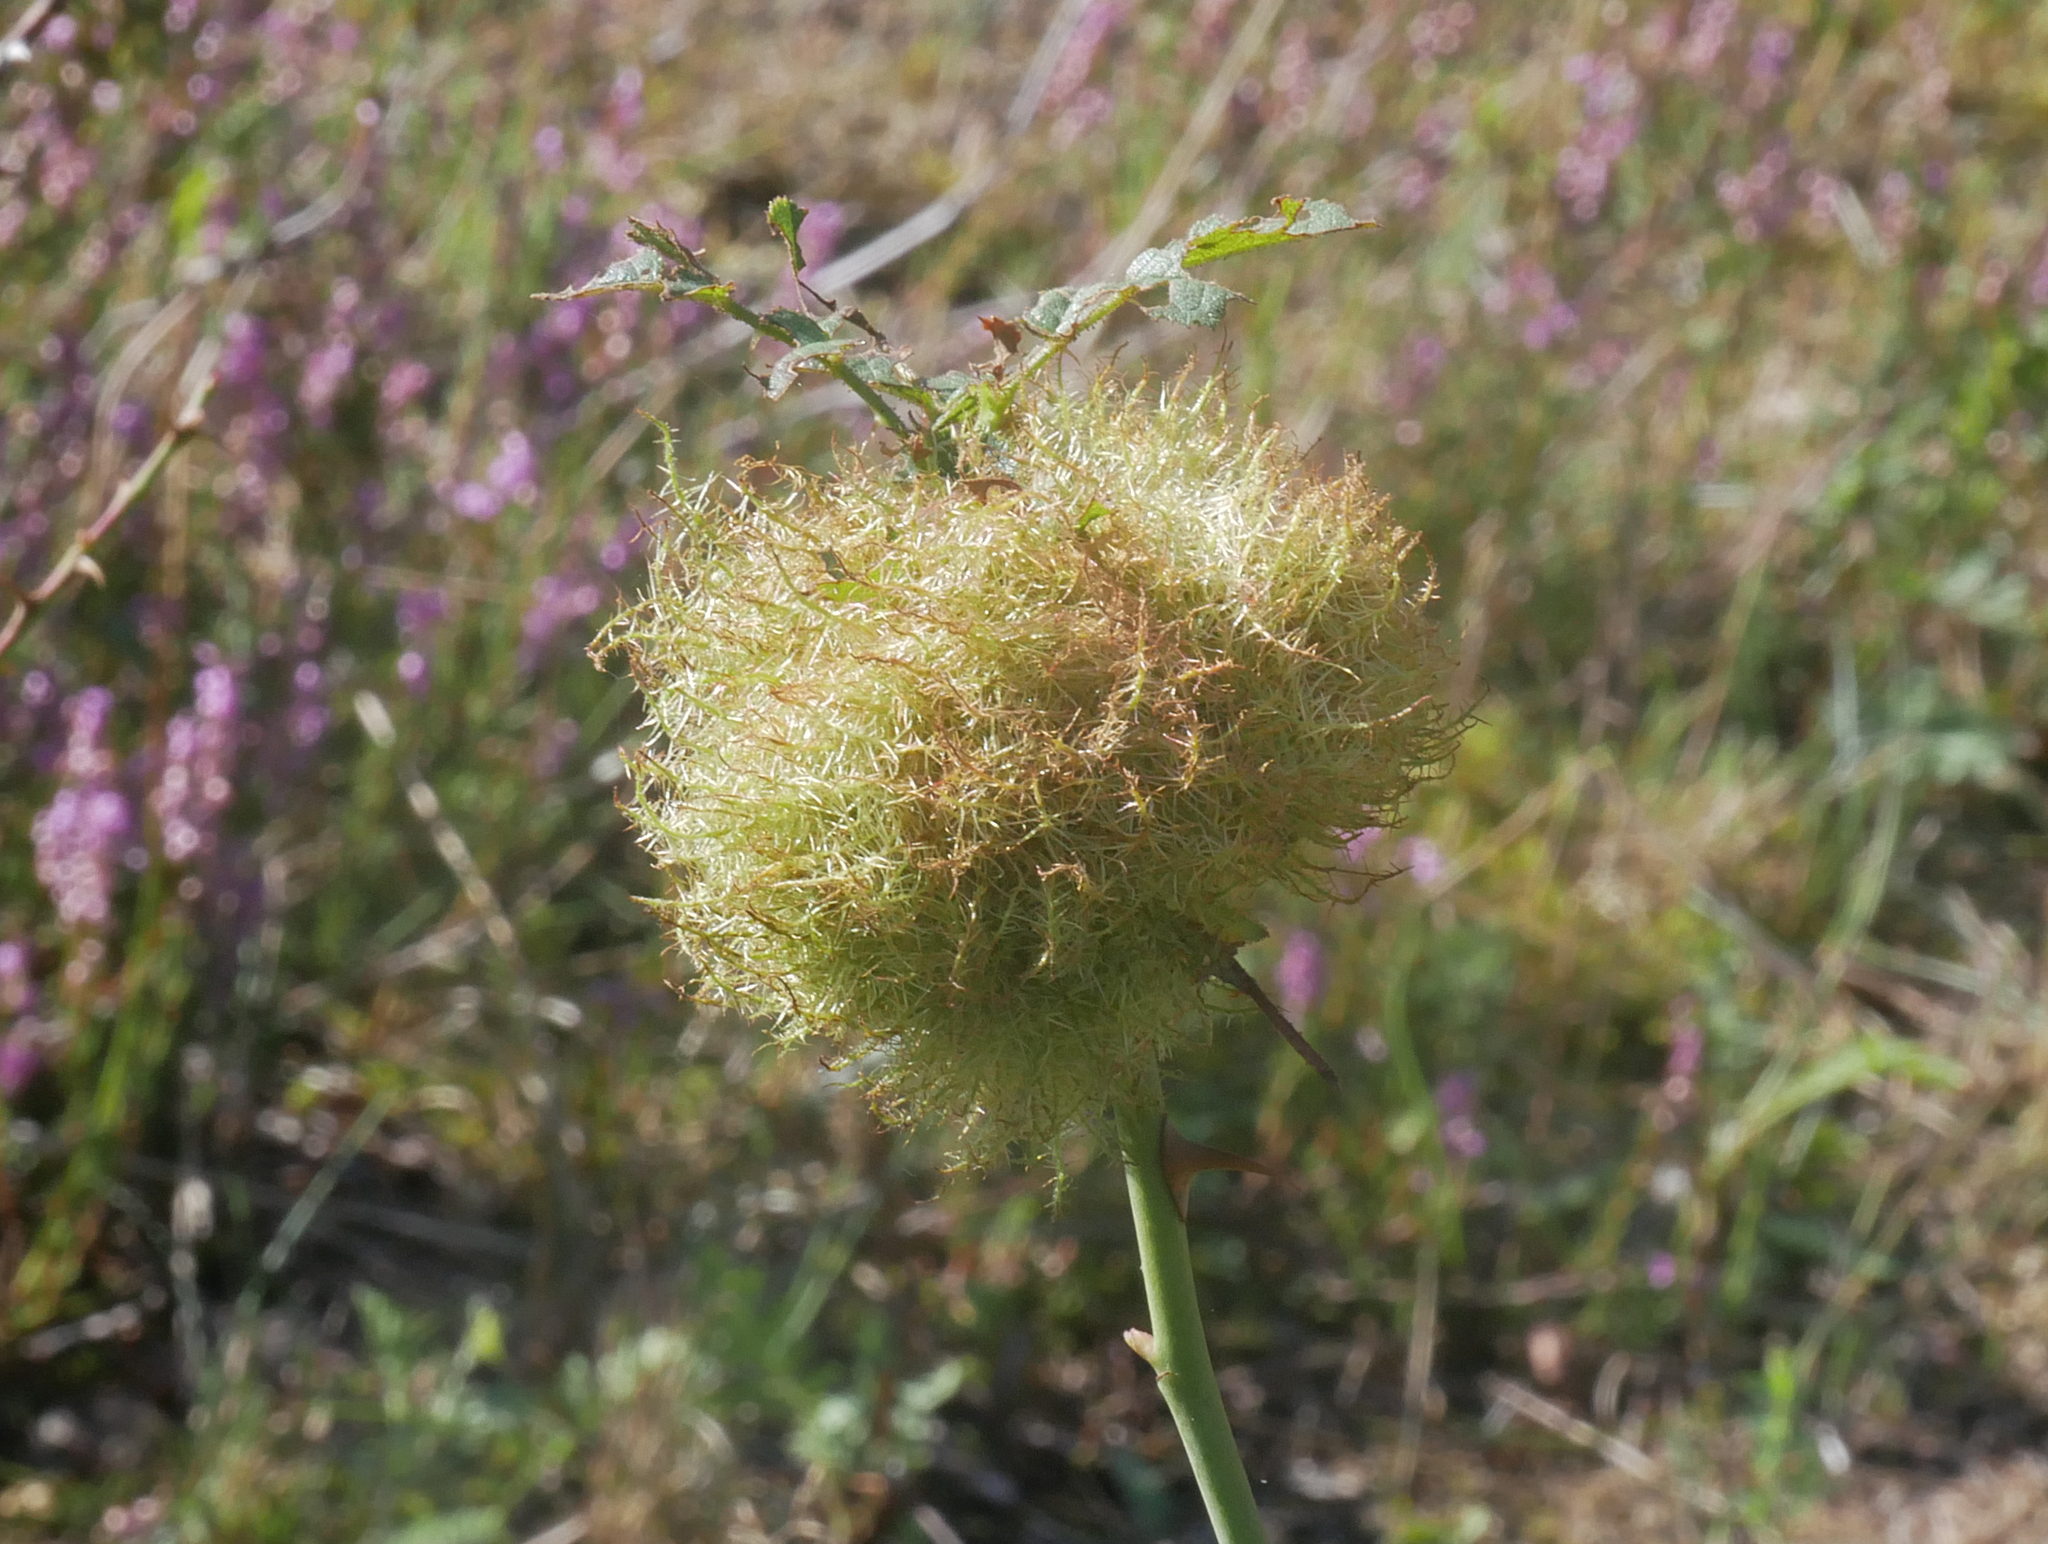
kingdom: Animalia
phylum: Arthropoda
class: Insecta
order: Hymenoptera
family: Cynipidae
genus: Diplolepis
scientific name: Diplolepis rosae
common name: Bedeguar gall
